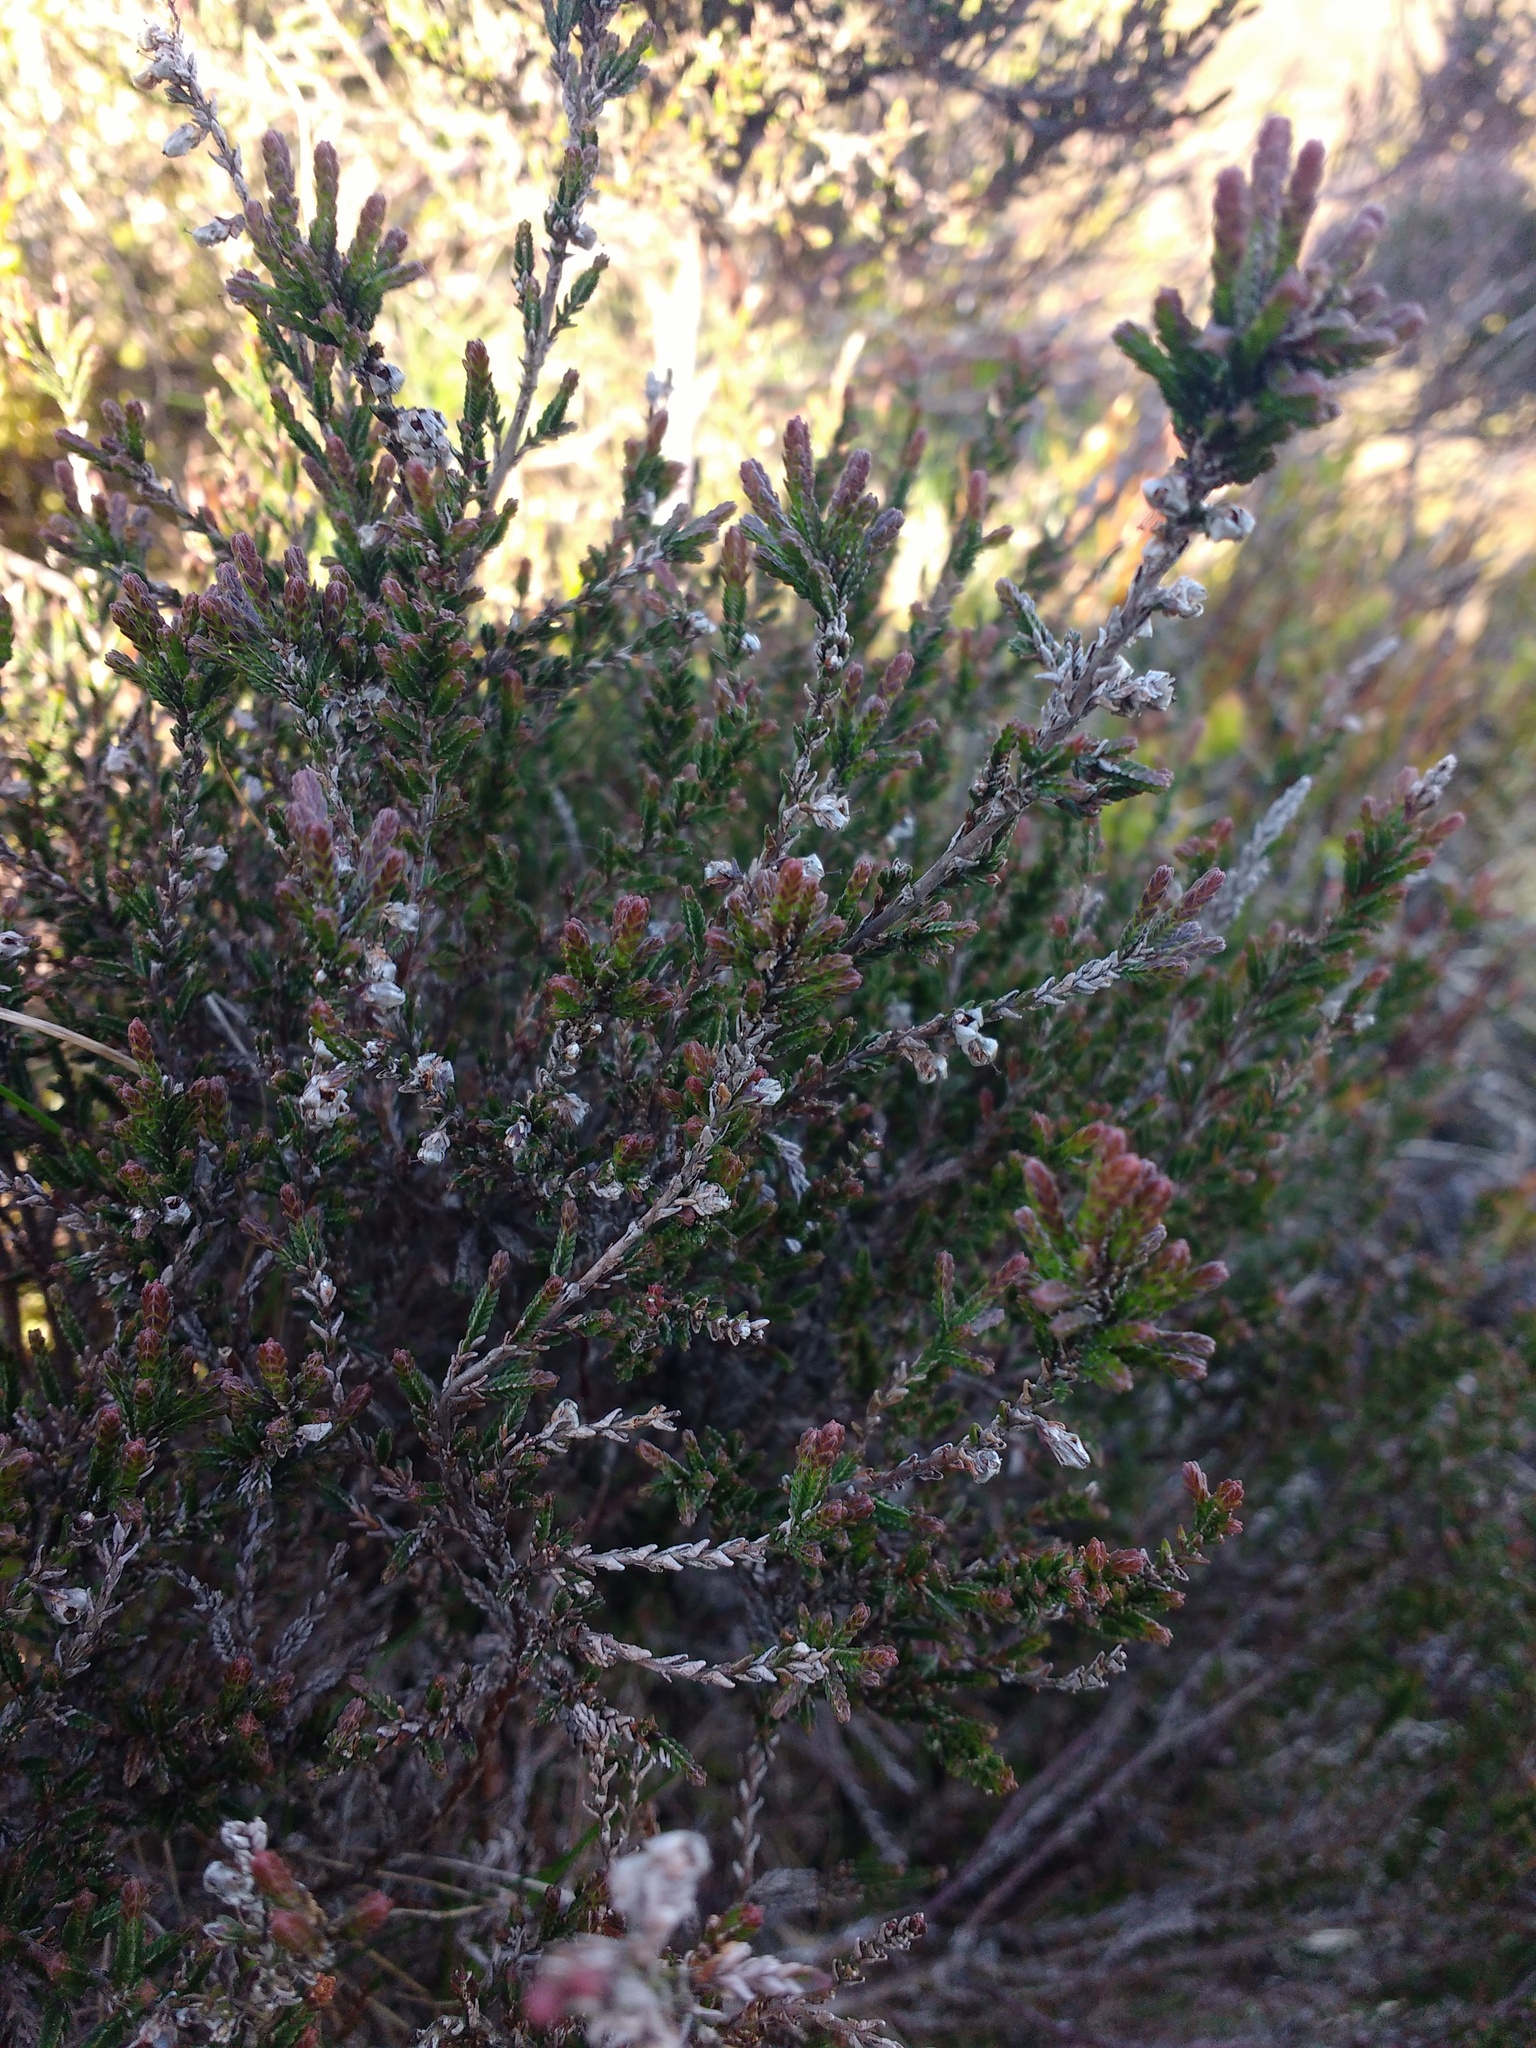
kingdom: Plantae
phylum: Tracheophyta
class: Magnoliopsida
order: Ericales
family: Ericaceae
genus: Calluna
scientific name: Calluna vulgaris
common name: Heather
